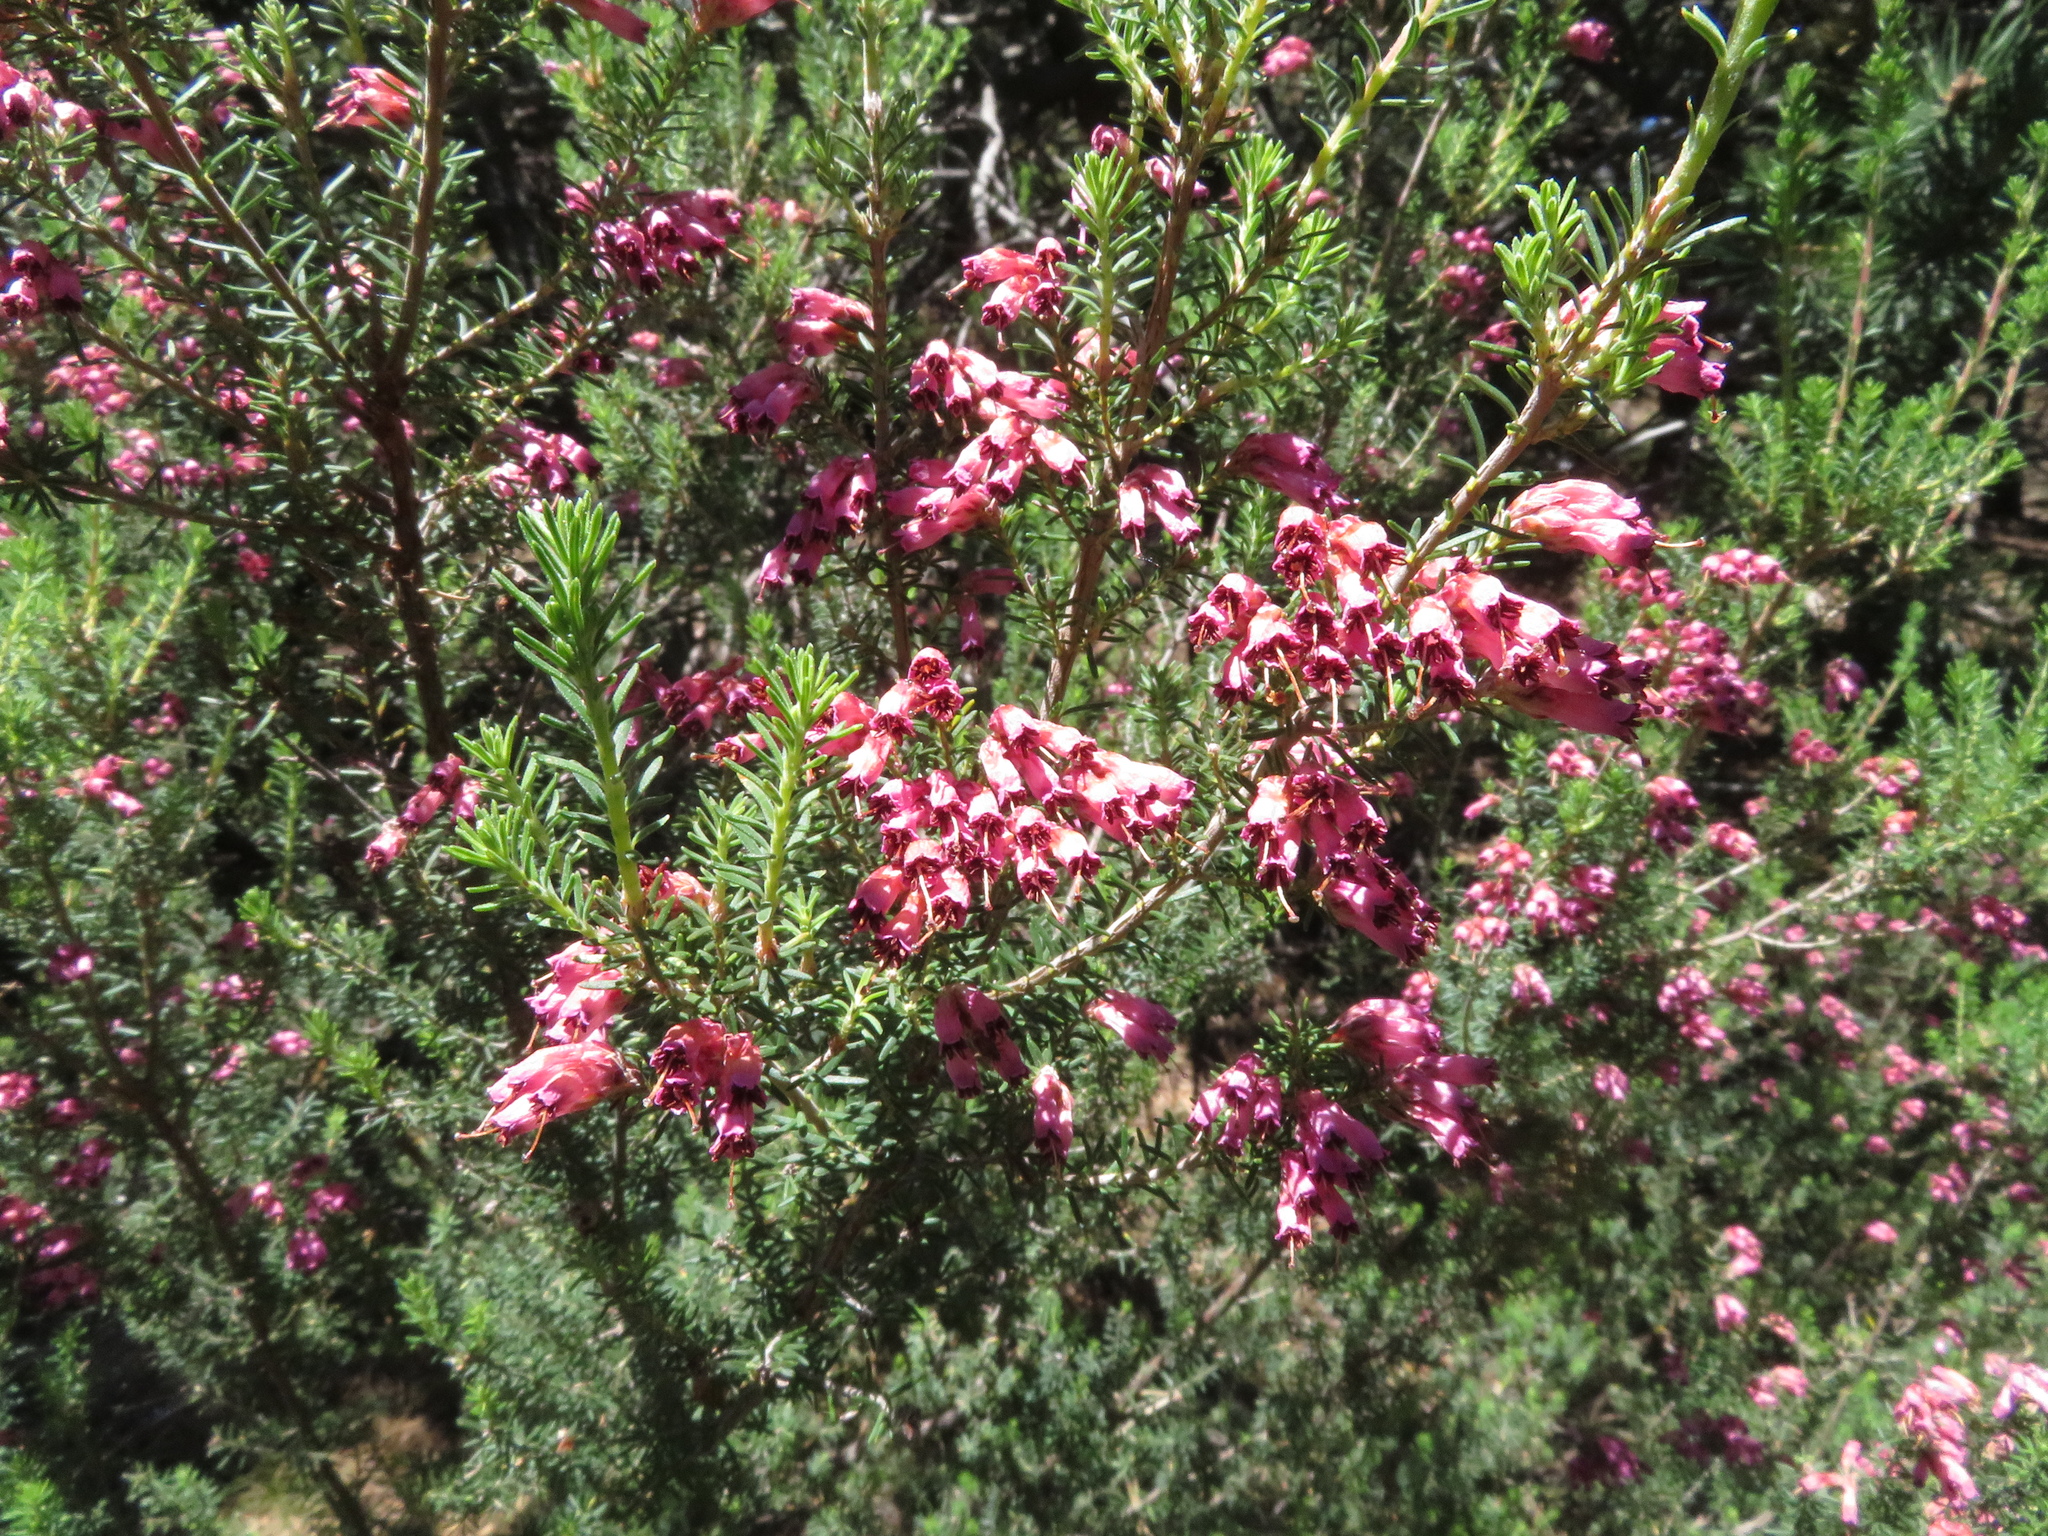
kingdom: Plantae
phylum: Tracheophyta
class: Magnoliopsida
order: Ericales
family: Ericaceae
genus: Erica
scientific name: Erica australis
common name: Spanish heath
